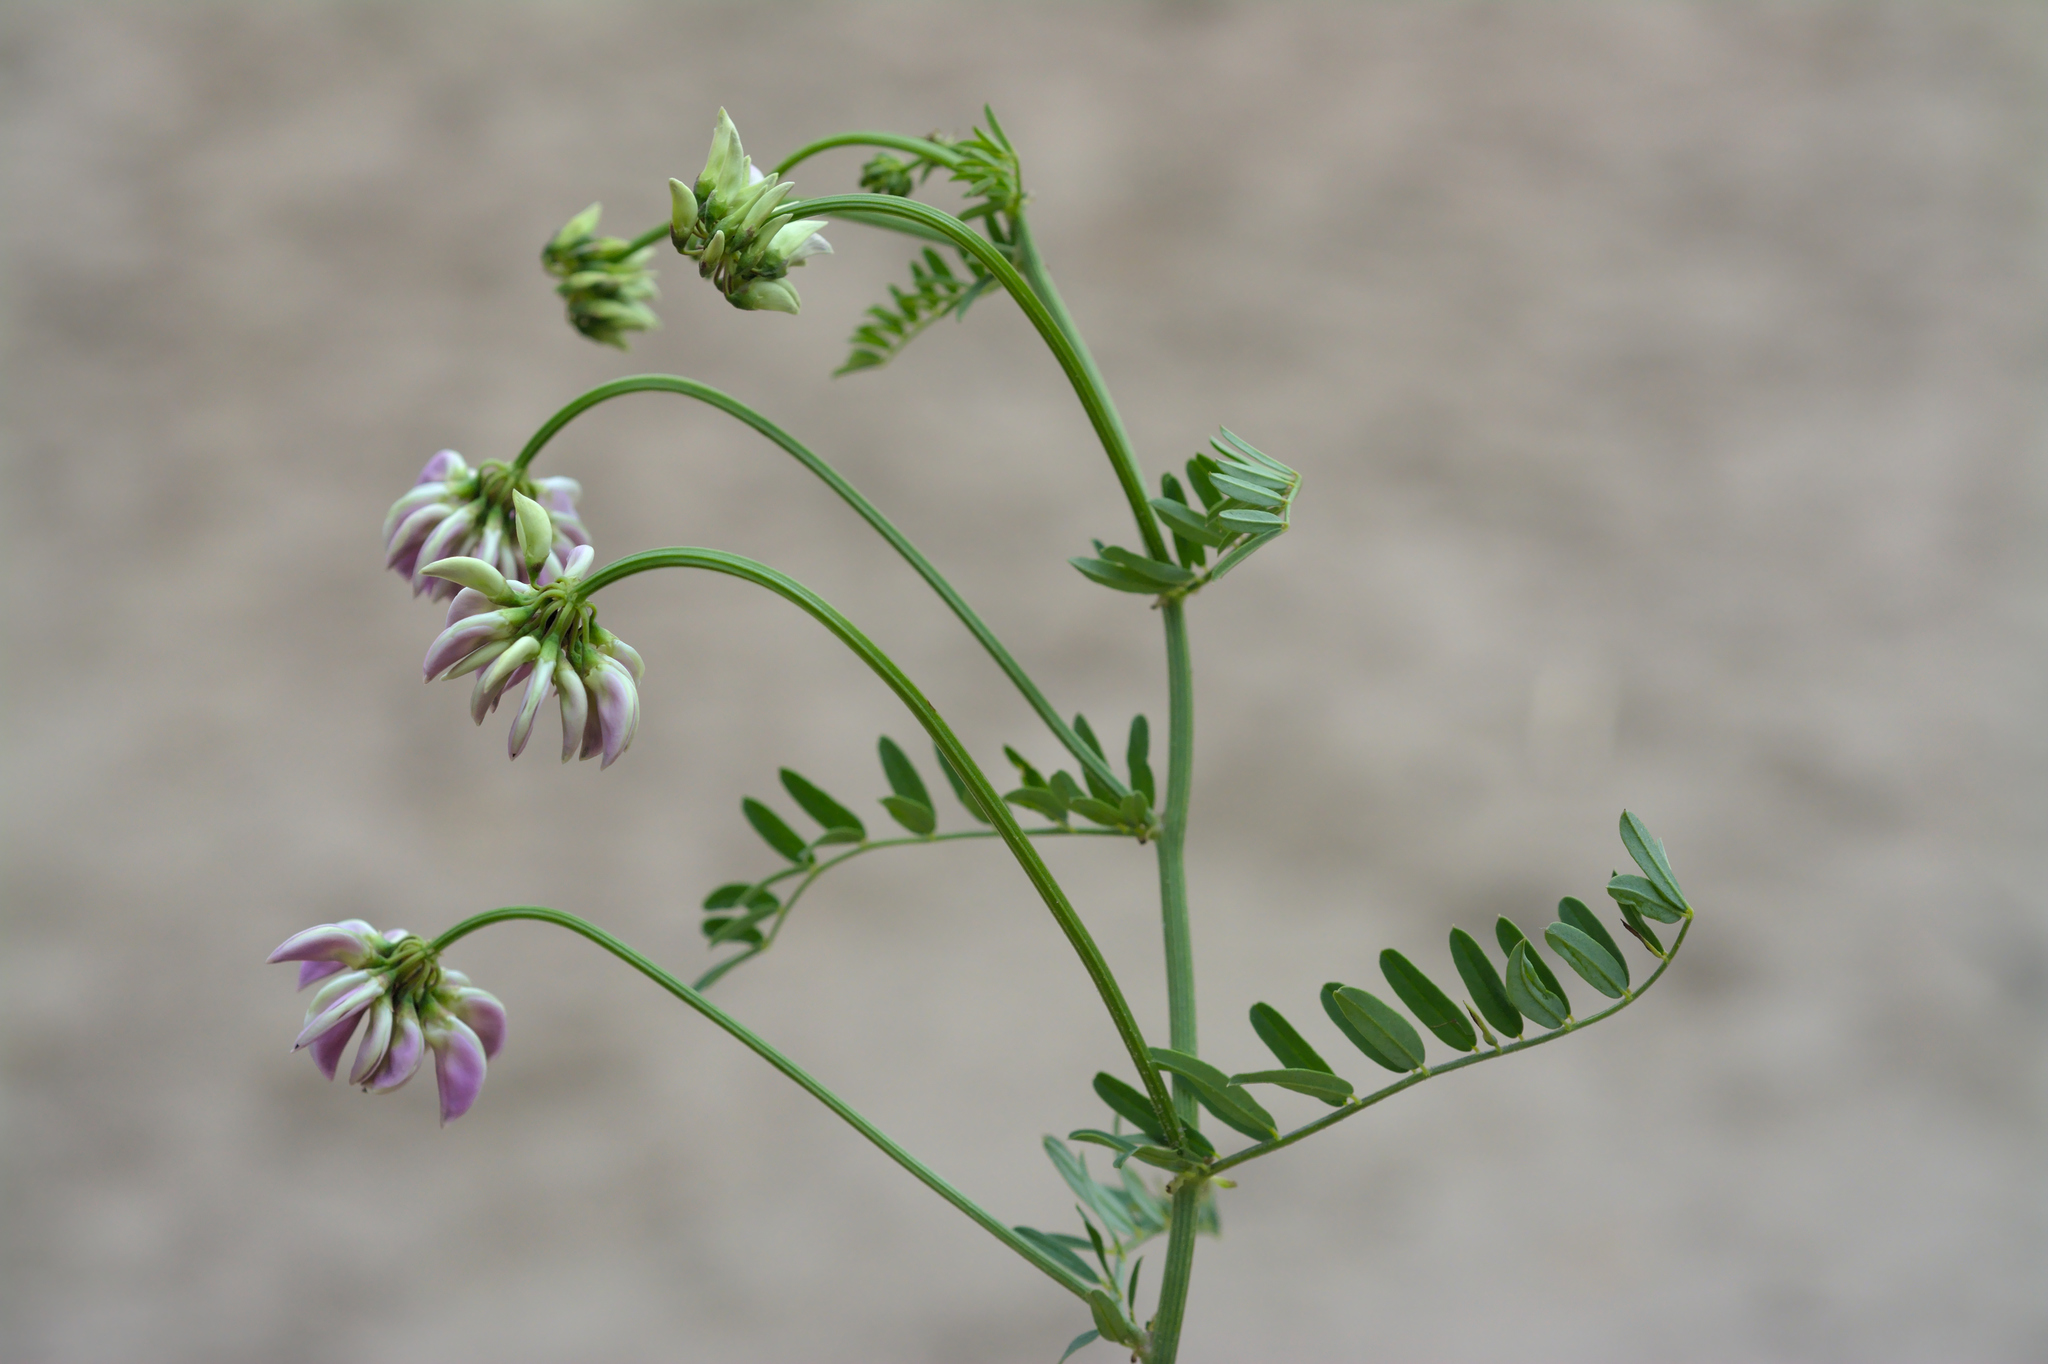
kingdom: Plantae
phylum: Tracheophyta
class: Magnoliopsida
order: Fabales
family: Fabaceae
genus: Coronilla
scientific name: Coronilla varia
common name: Crownvetch
